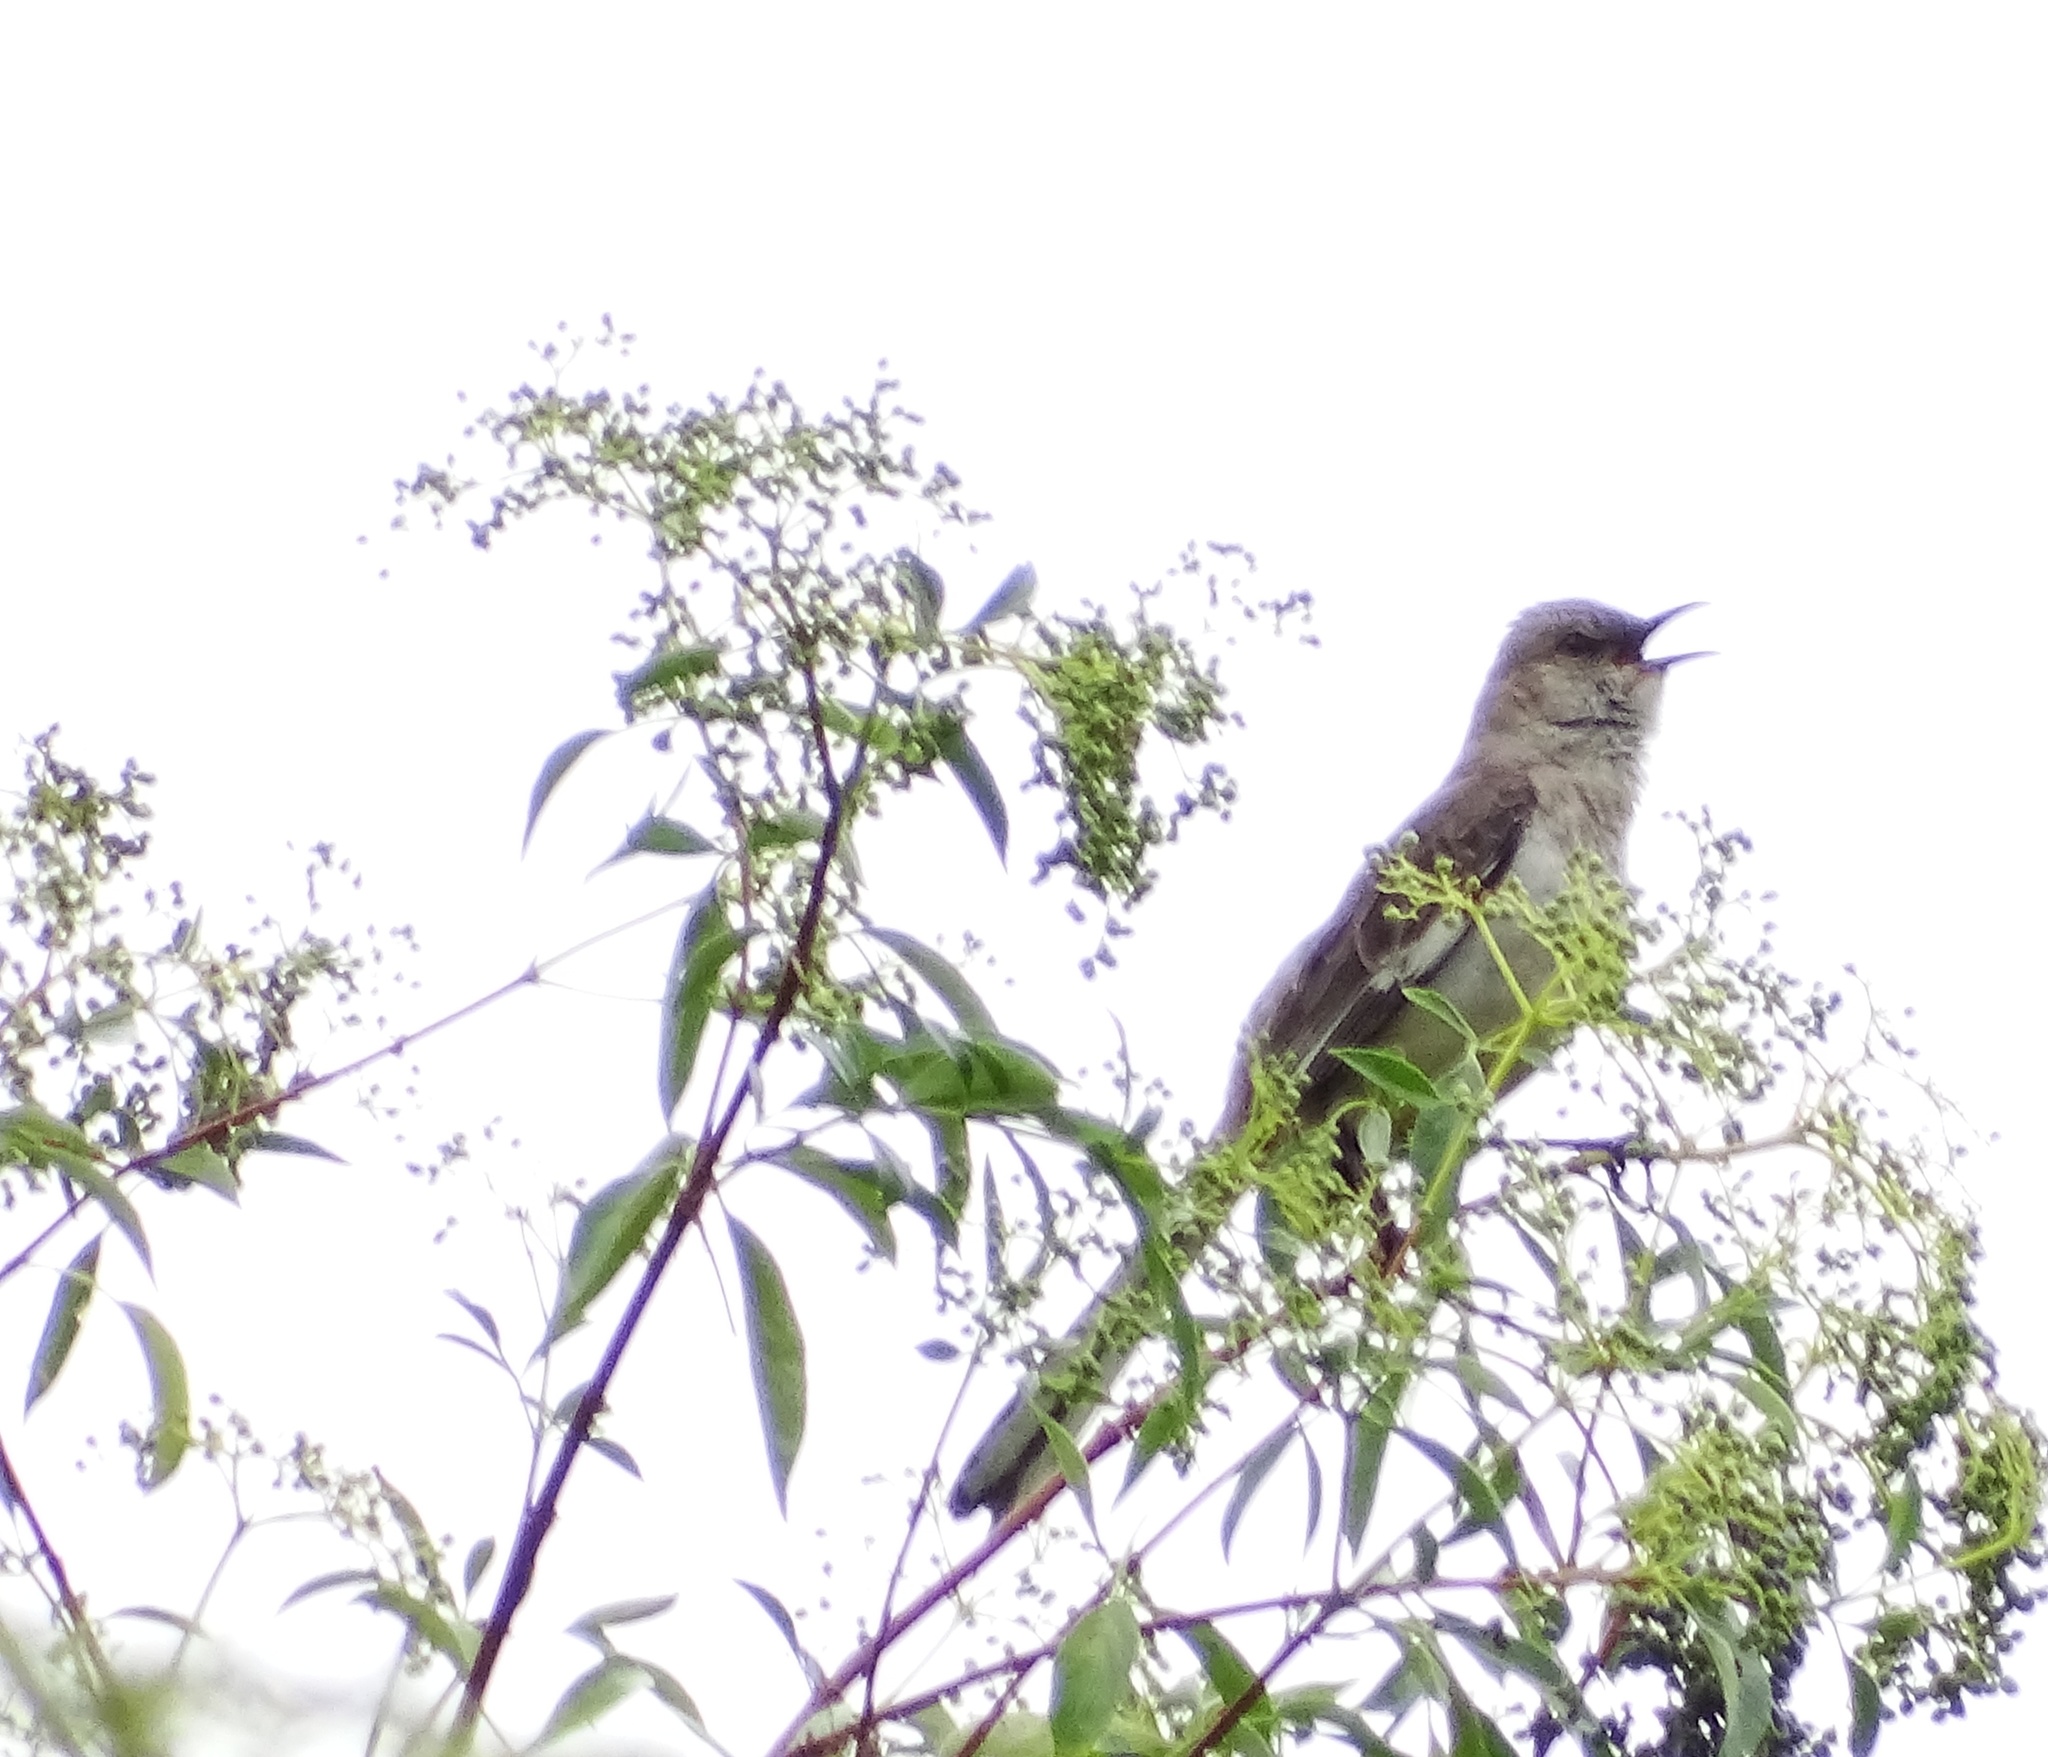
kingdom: Animalia
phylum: Chordata
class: Aves
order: Passeriformes
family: Mimidae
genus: Mimus
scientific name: Mimus polyglottos
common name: Northern mockingbird
